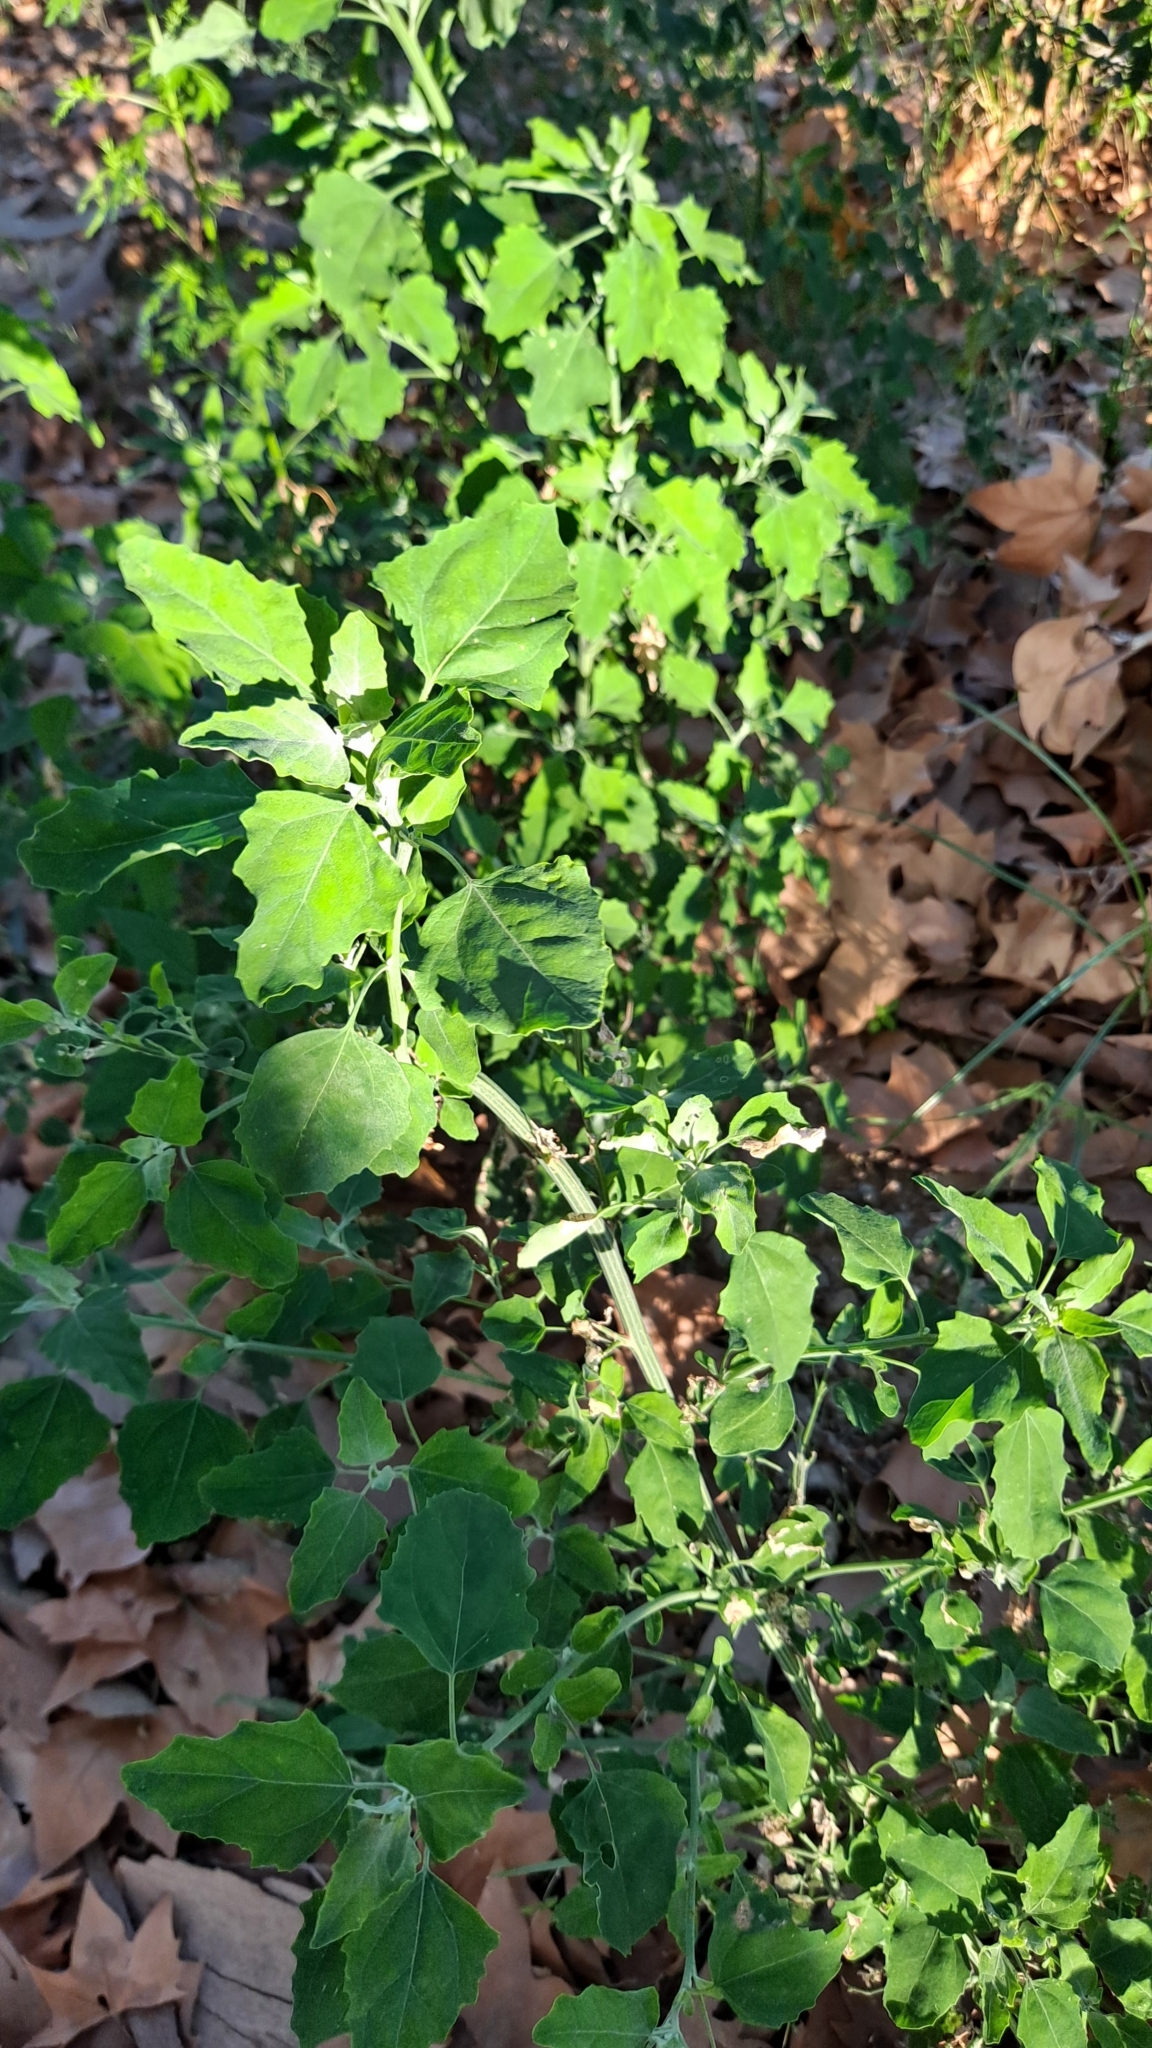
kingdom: Plantae
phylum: Tracheophyta
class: Magnoliopsida
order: Caryophyllales
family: Amaranthaceae
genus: Chenopodium
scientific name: Chenopodium album
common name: Fat-hen
